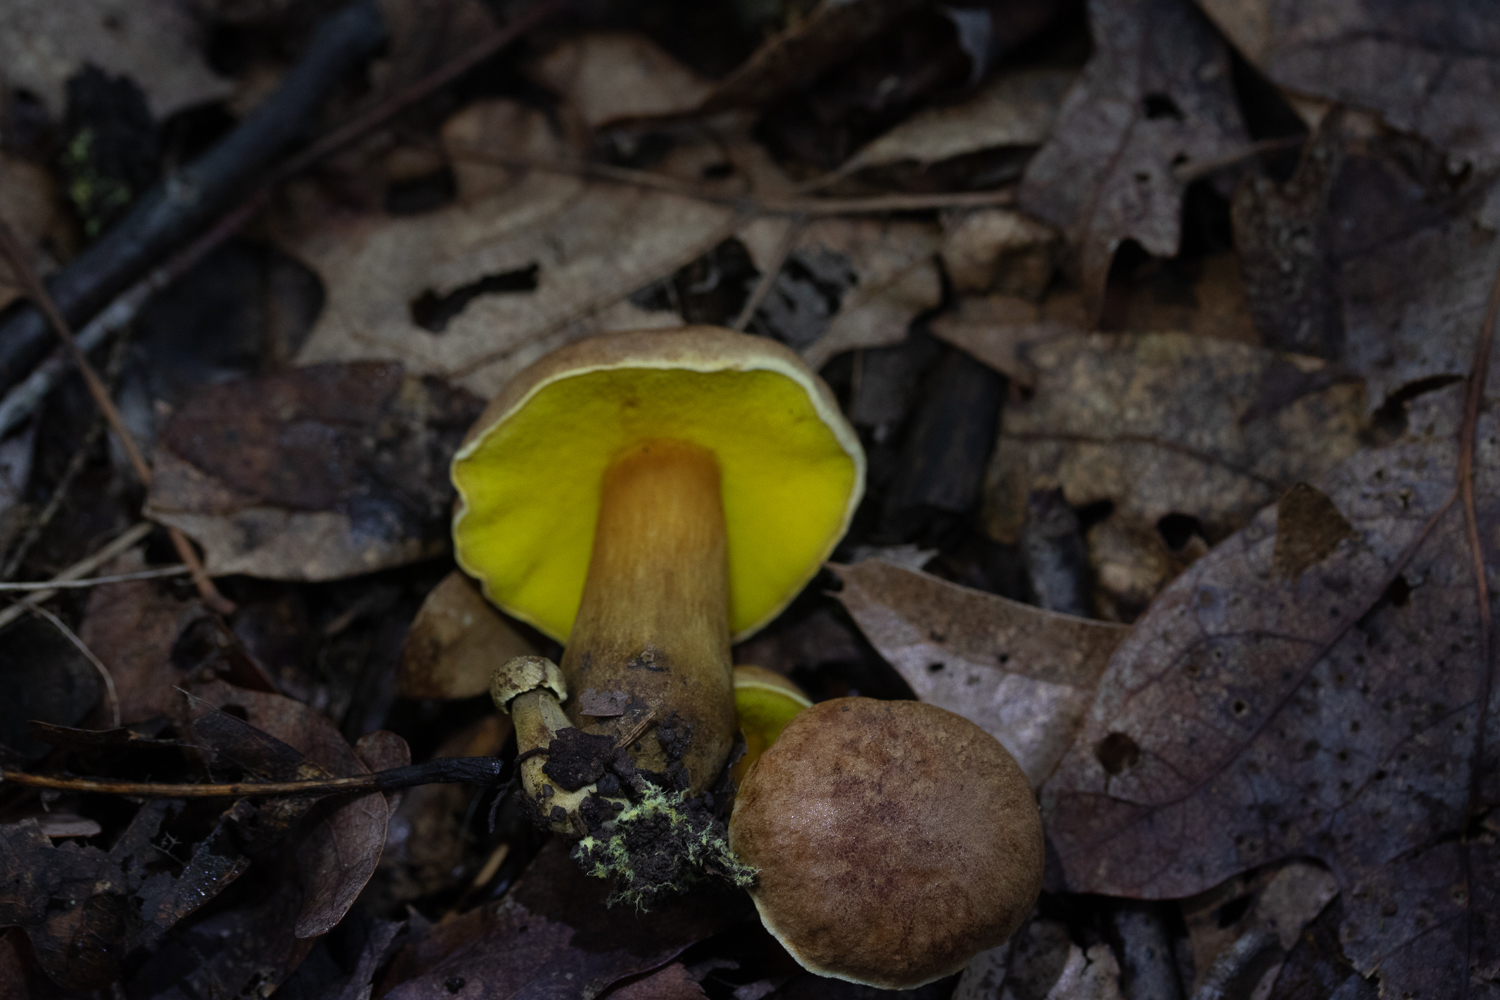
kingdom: Fungi
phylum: Basidiomycota
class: Agaricomycetes
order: Boletales
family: Boletaceae
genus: Aureoboletus
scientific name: Aureoboletus innixus
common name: Clustered brown bolete
